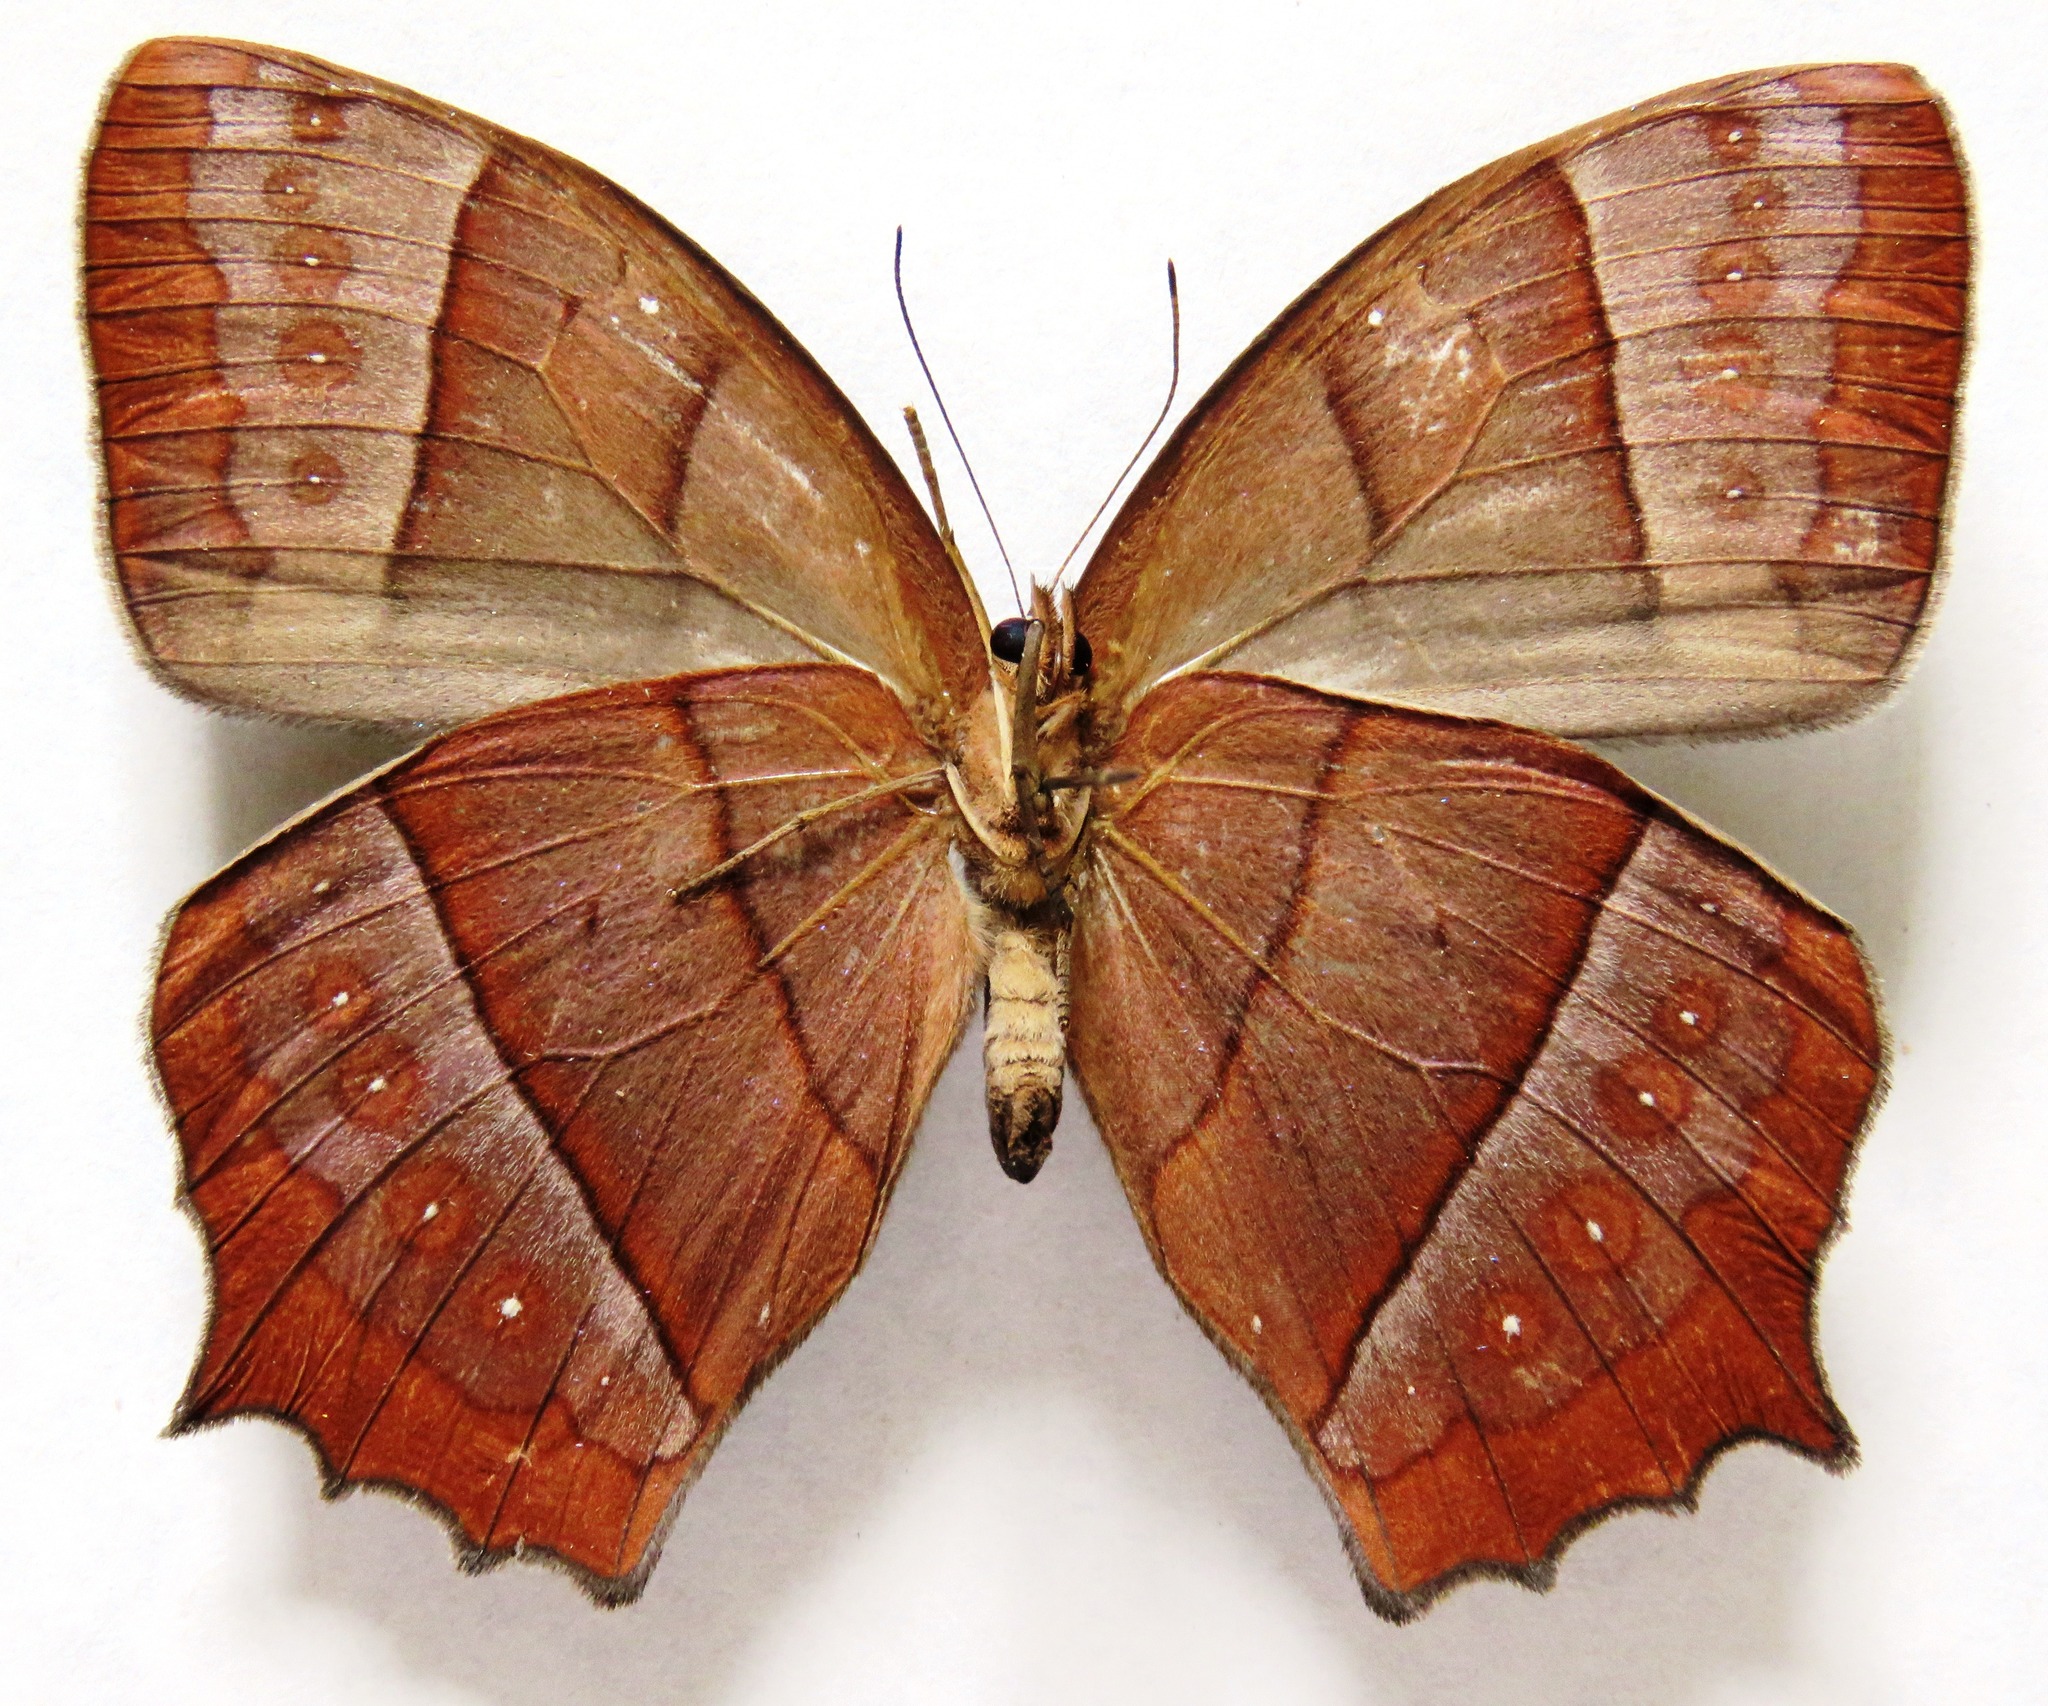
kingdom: Animalia
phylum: Arthropoda
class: Insecta
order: Lepidoptera
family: Nymphalidae
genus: Taygetis
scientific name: Taygetis virgilia
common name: Stub-tailed satyr
